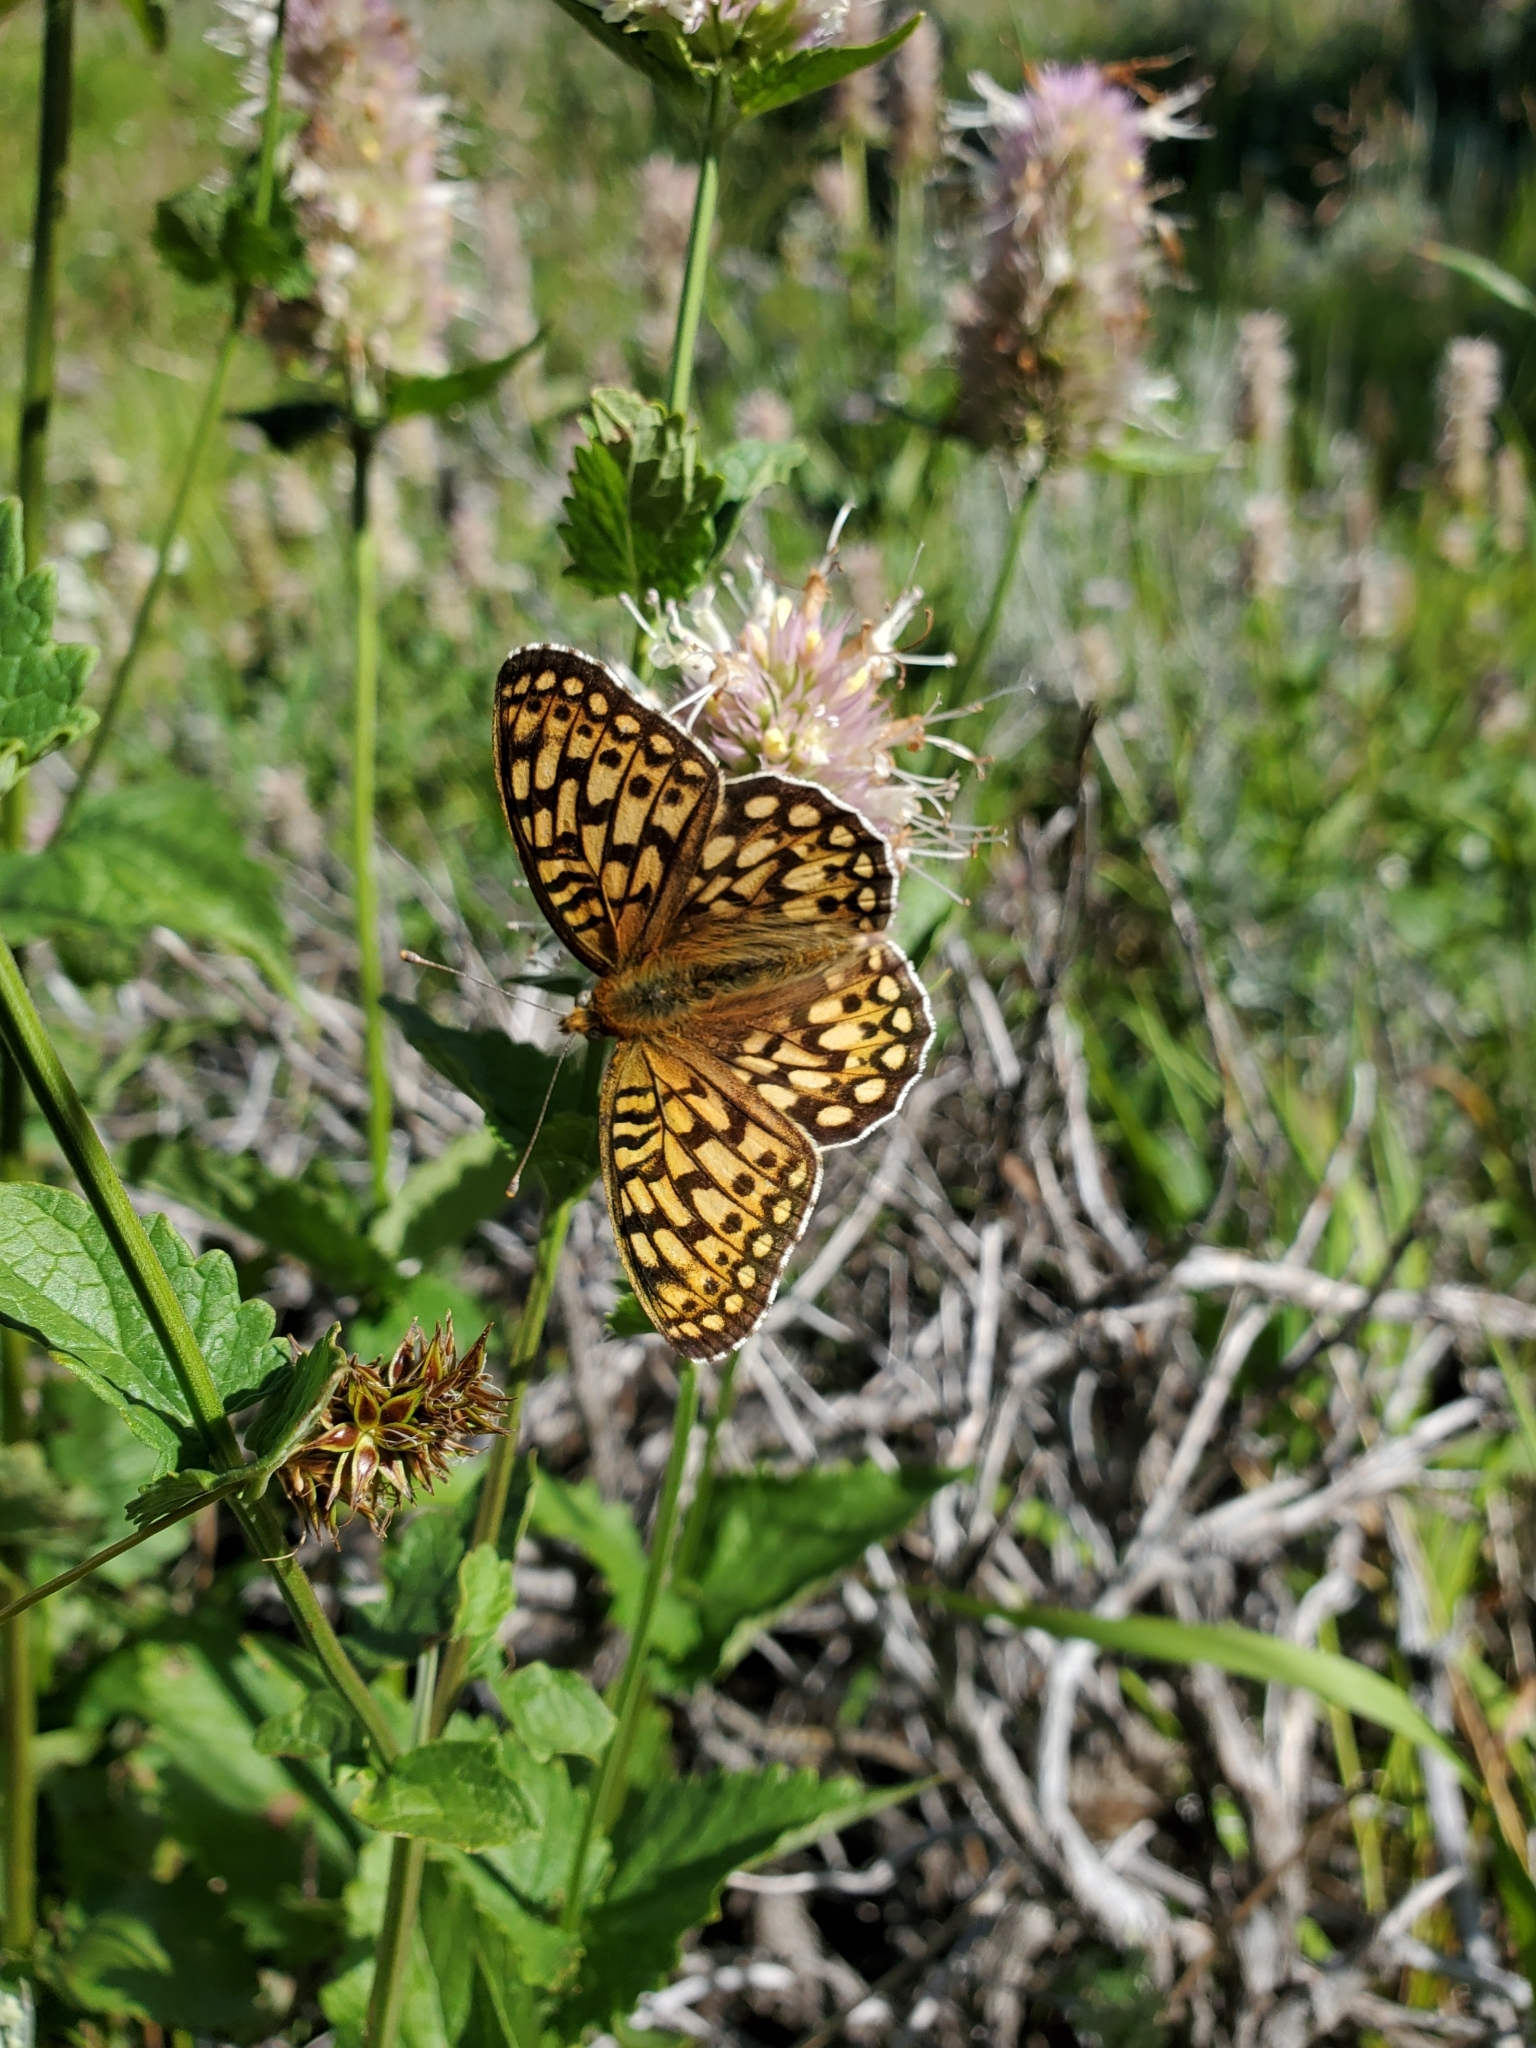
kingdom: Animalia
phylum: Arthropoda
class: Insecta
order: Lepidoptera
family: Nymphalidae
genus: Speyeria
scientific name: Speyeria callippe
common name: Callippe fritillary
